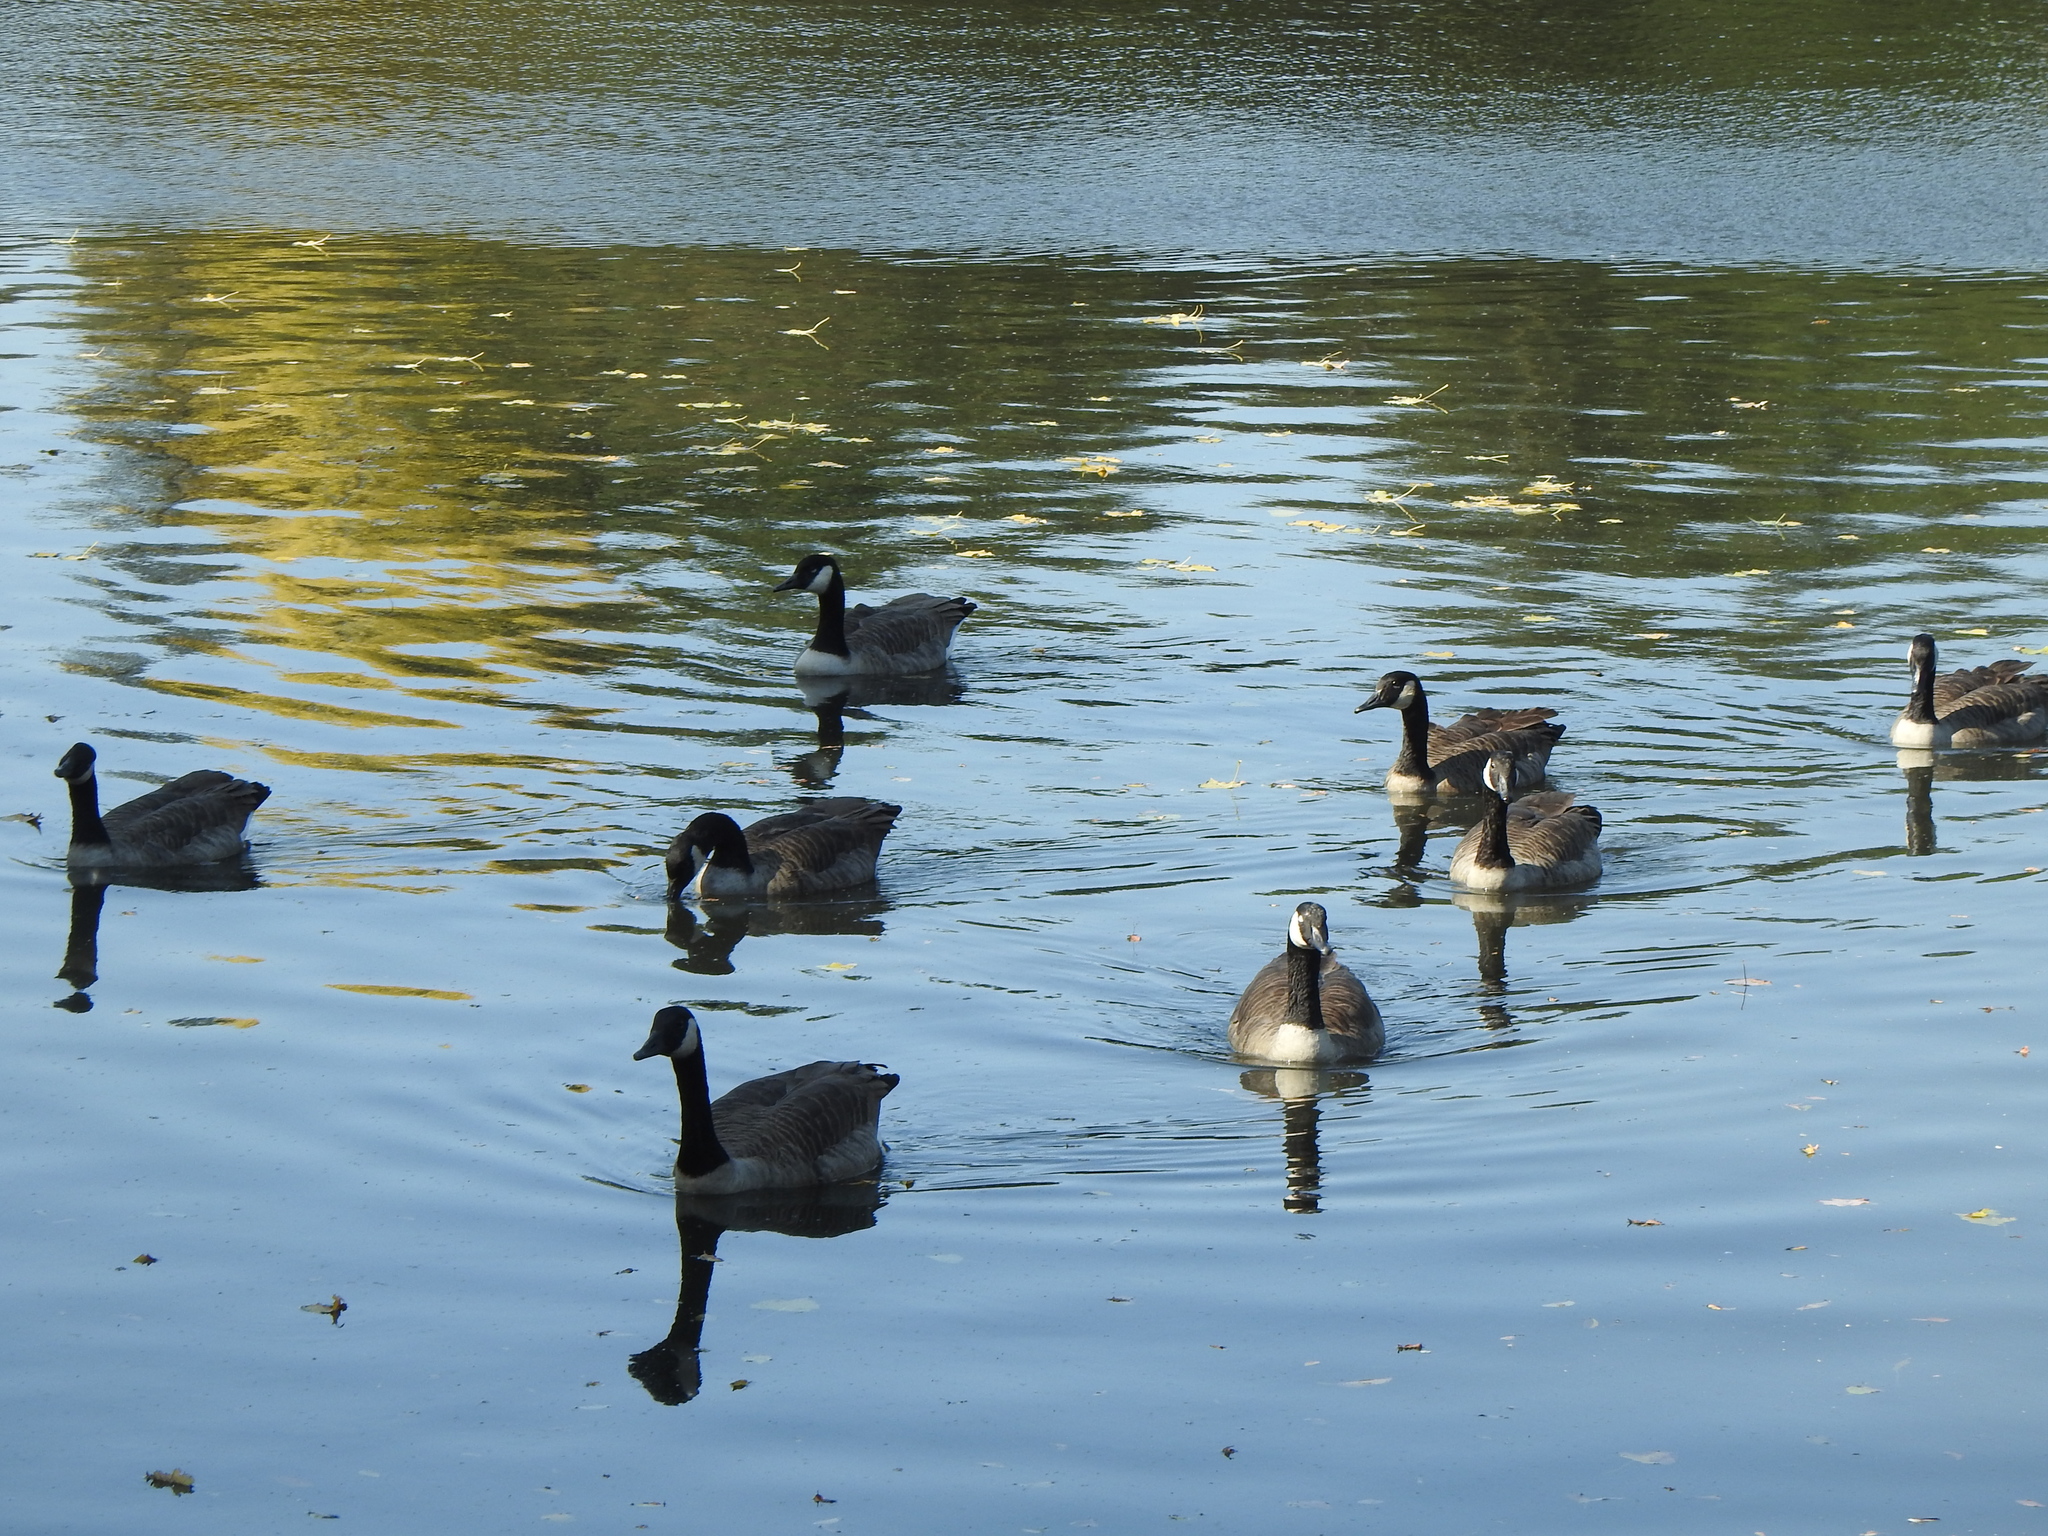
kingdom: Animalia
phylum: Chordata
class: Aves
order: Anseriformes
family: Anatidae
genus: Branta
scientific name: Branta canadensis
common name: Canada goose
